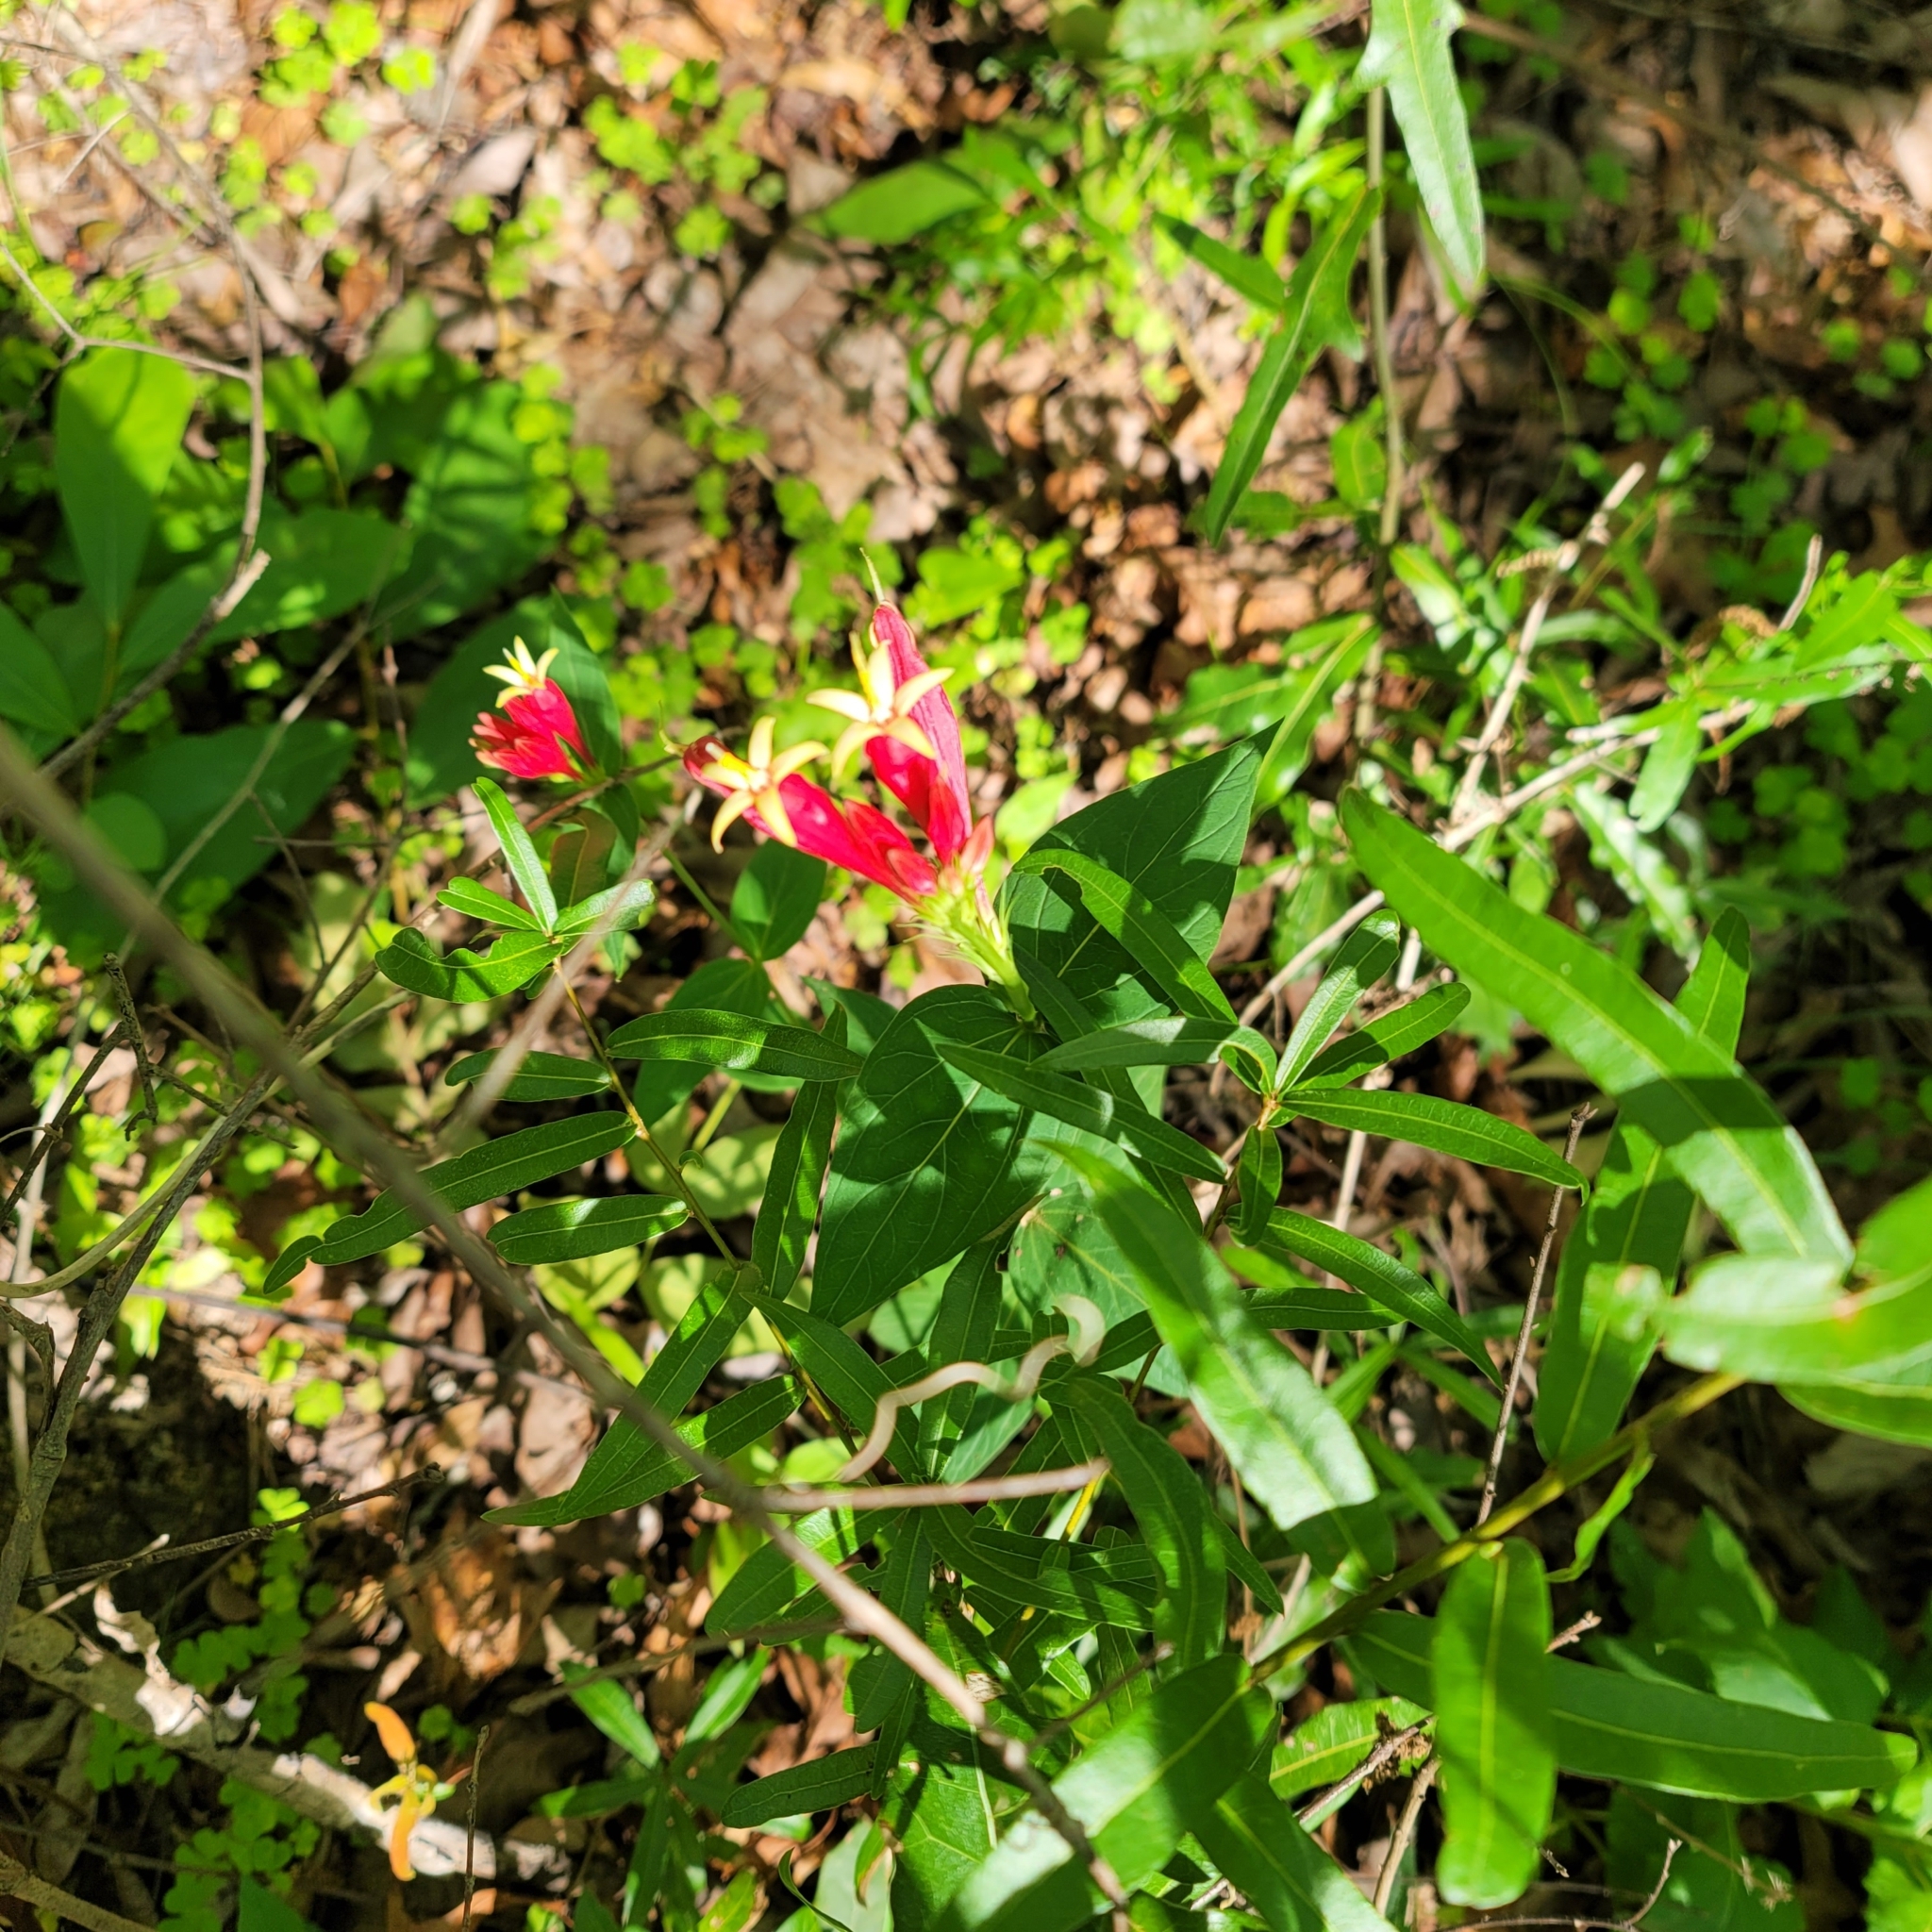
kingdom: Plantae
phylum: Tracheophyta
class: Magnoliopsida
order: Gentianales
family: Loganiaceae
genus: Spigelia
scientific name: Spigelia marilandica
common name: Indian-pink
